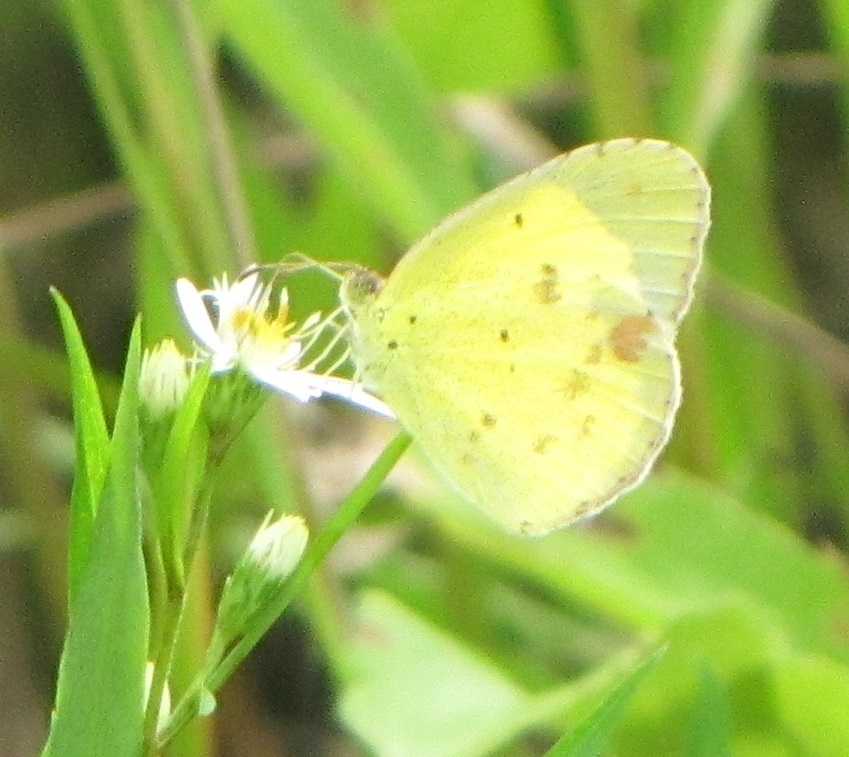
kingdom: Animalia
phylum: Arthropoda
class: Insecta
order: Lepidoptera
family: Pieridae
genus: Pyrisitia
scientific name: Pyrisitia lisa
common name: Little yellow
